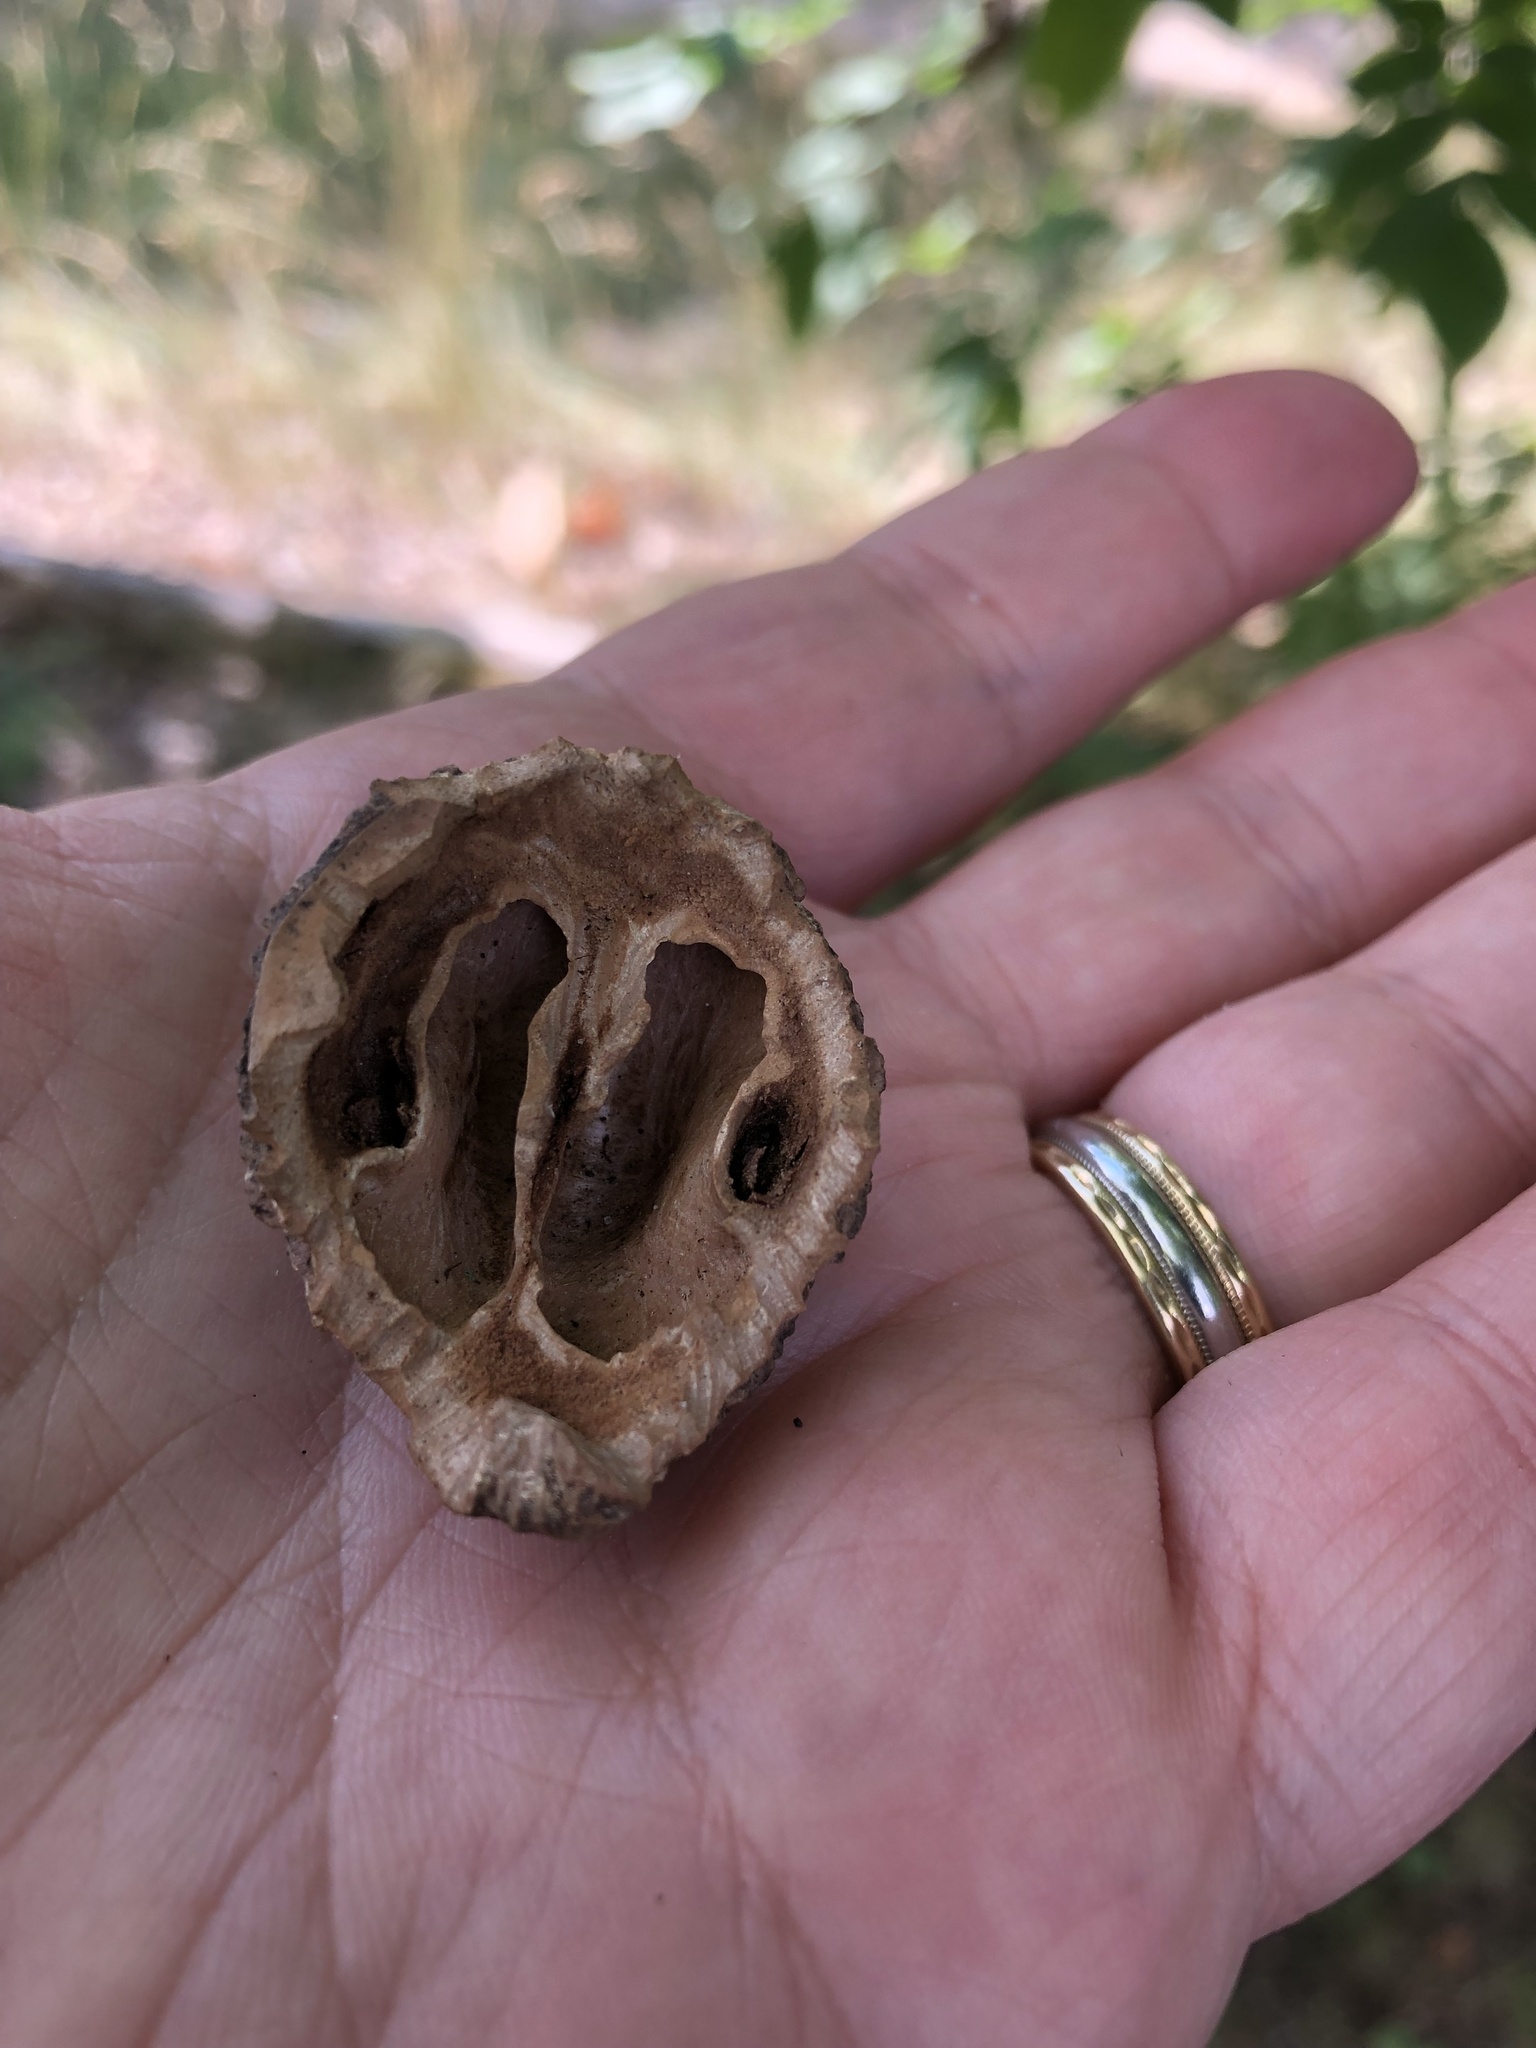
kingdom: Plantae
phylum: Tracheophyta
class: Magnoliopsida
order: Fagales
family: Juglandaceae
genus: Juglans
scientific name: Juglans nigra
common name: Black walnut
